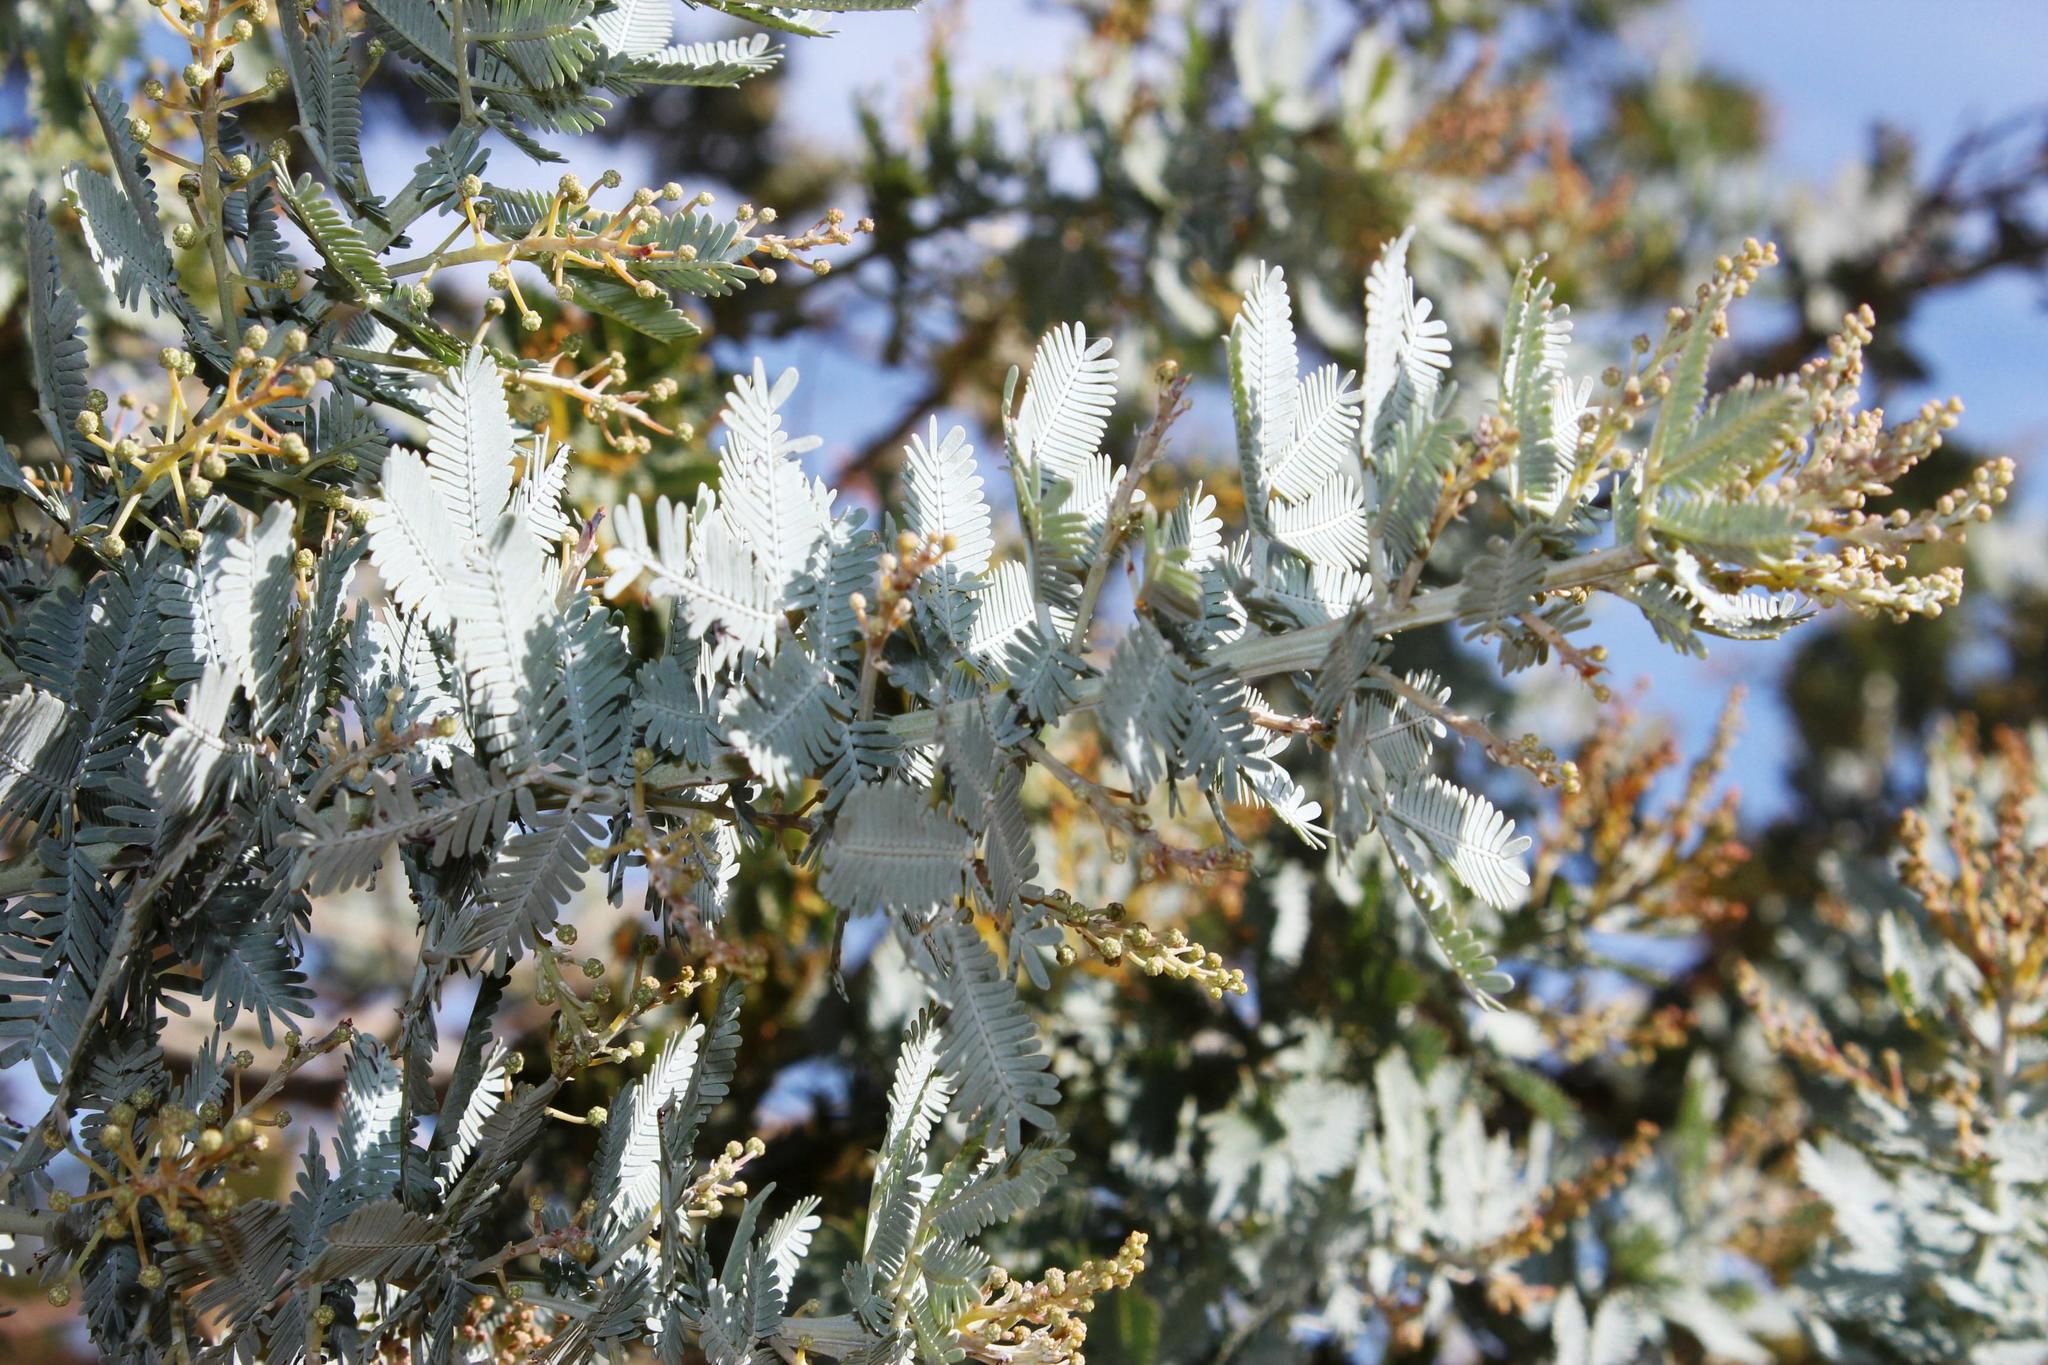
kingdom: Plantae
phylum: Tracheophyta
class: Magnoliopsida
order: Fabales
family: Fabaceae
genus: Acacia
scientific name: Acacia baileyana
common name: Cootamundra wattle
